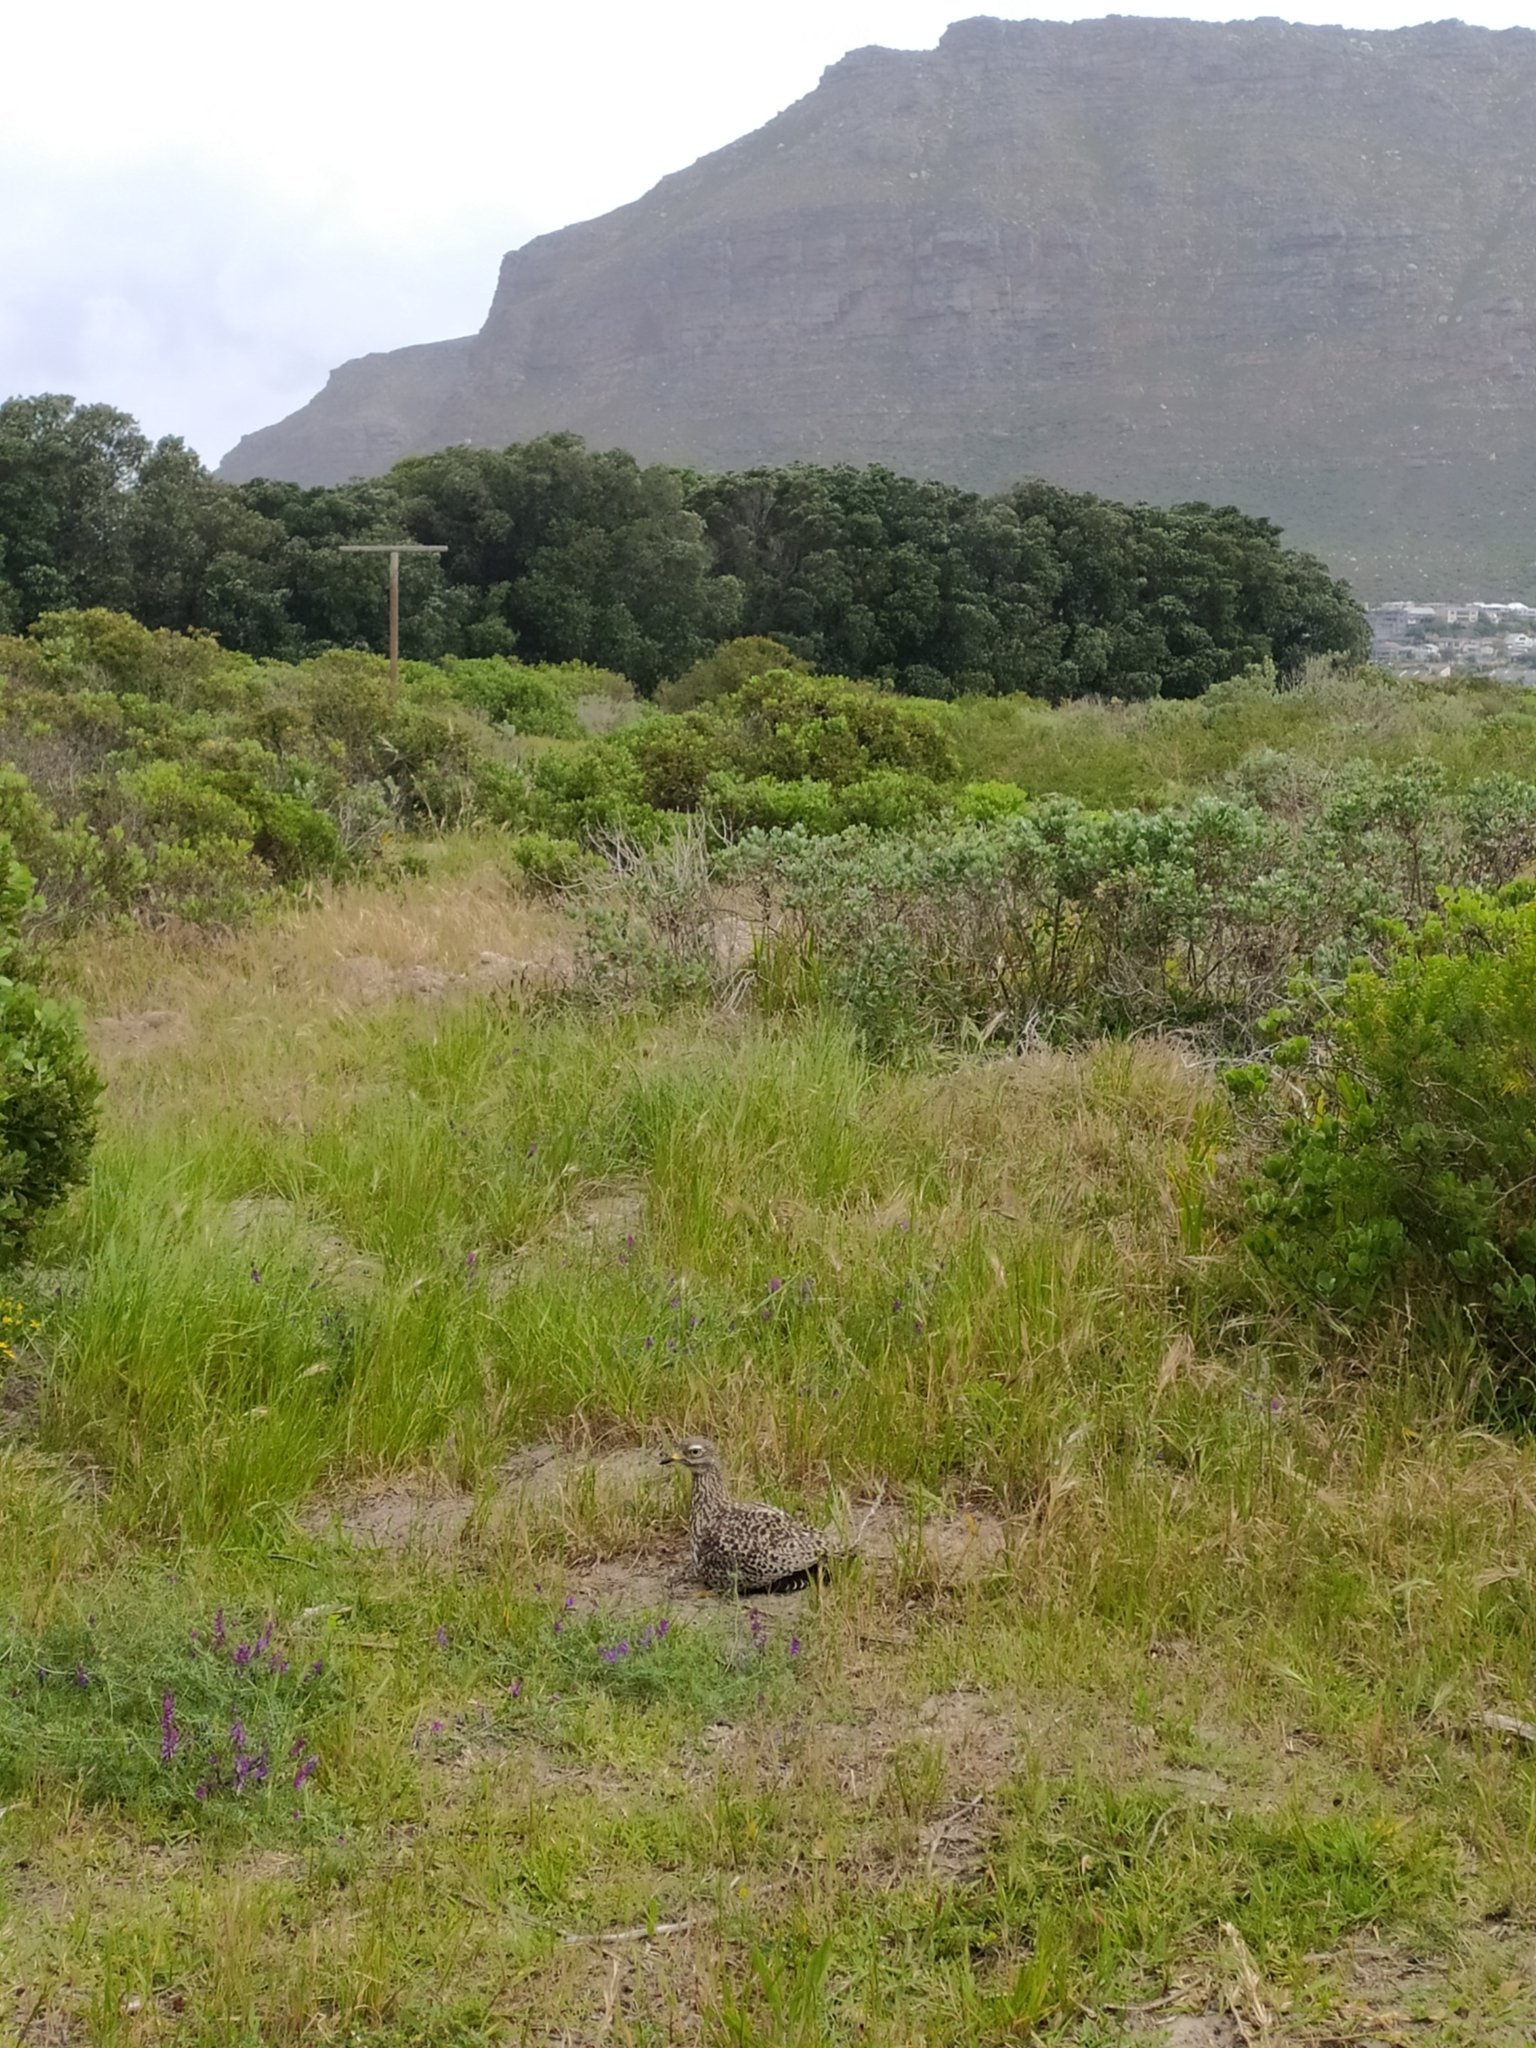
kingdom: Animalia
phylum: Chordata
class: Aves
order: Charadriiformes
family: Burhinidae
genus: Burhinus
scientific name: Burhinus capensis
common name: Spotted thick-knee
